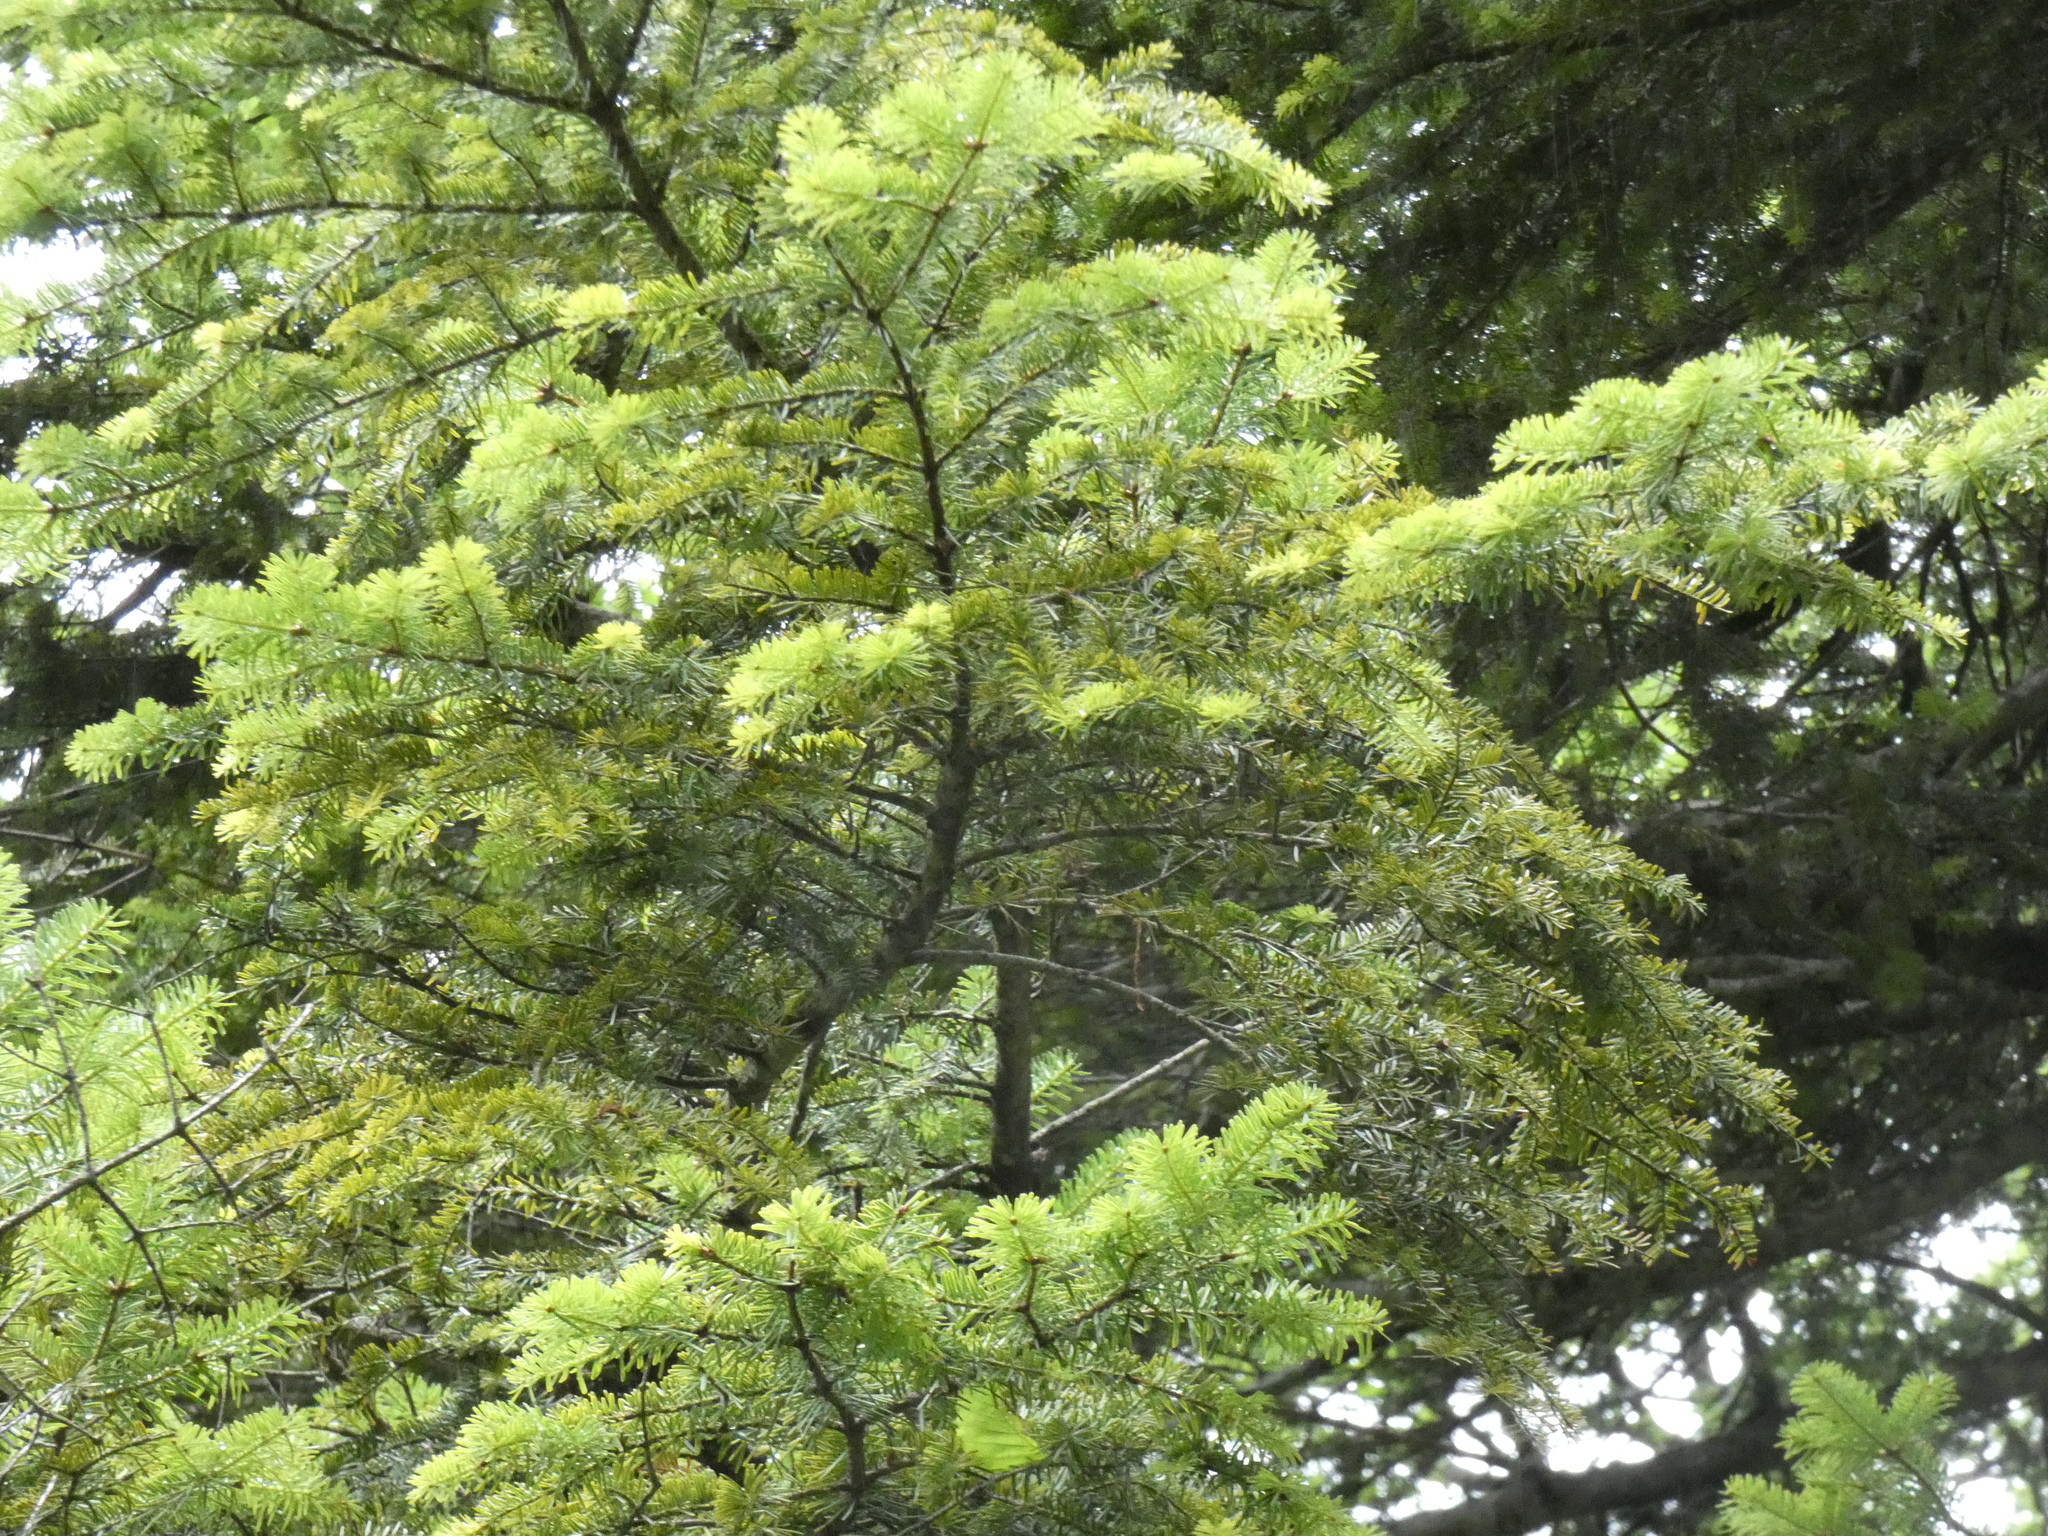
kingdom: Plantae
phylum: Tracheophyta
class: Pinopsida
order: Pinales
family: Pinaceae
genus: Abies
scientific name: Abies alba
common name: Silver fir
